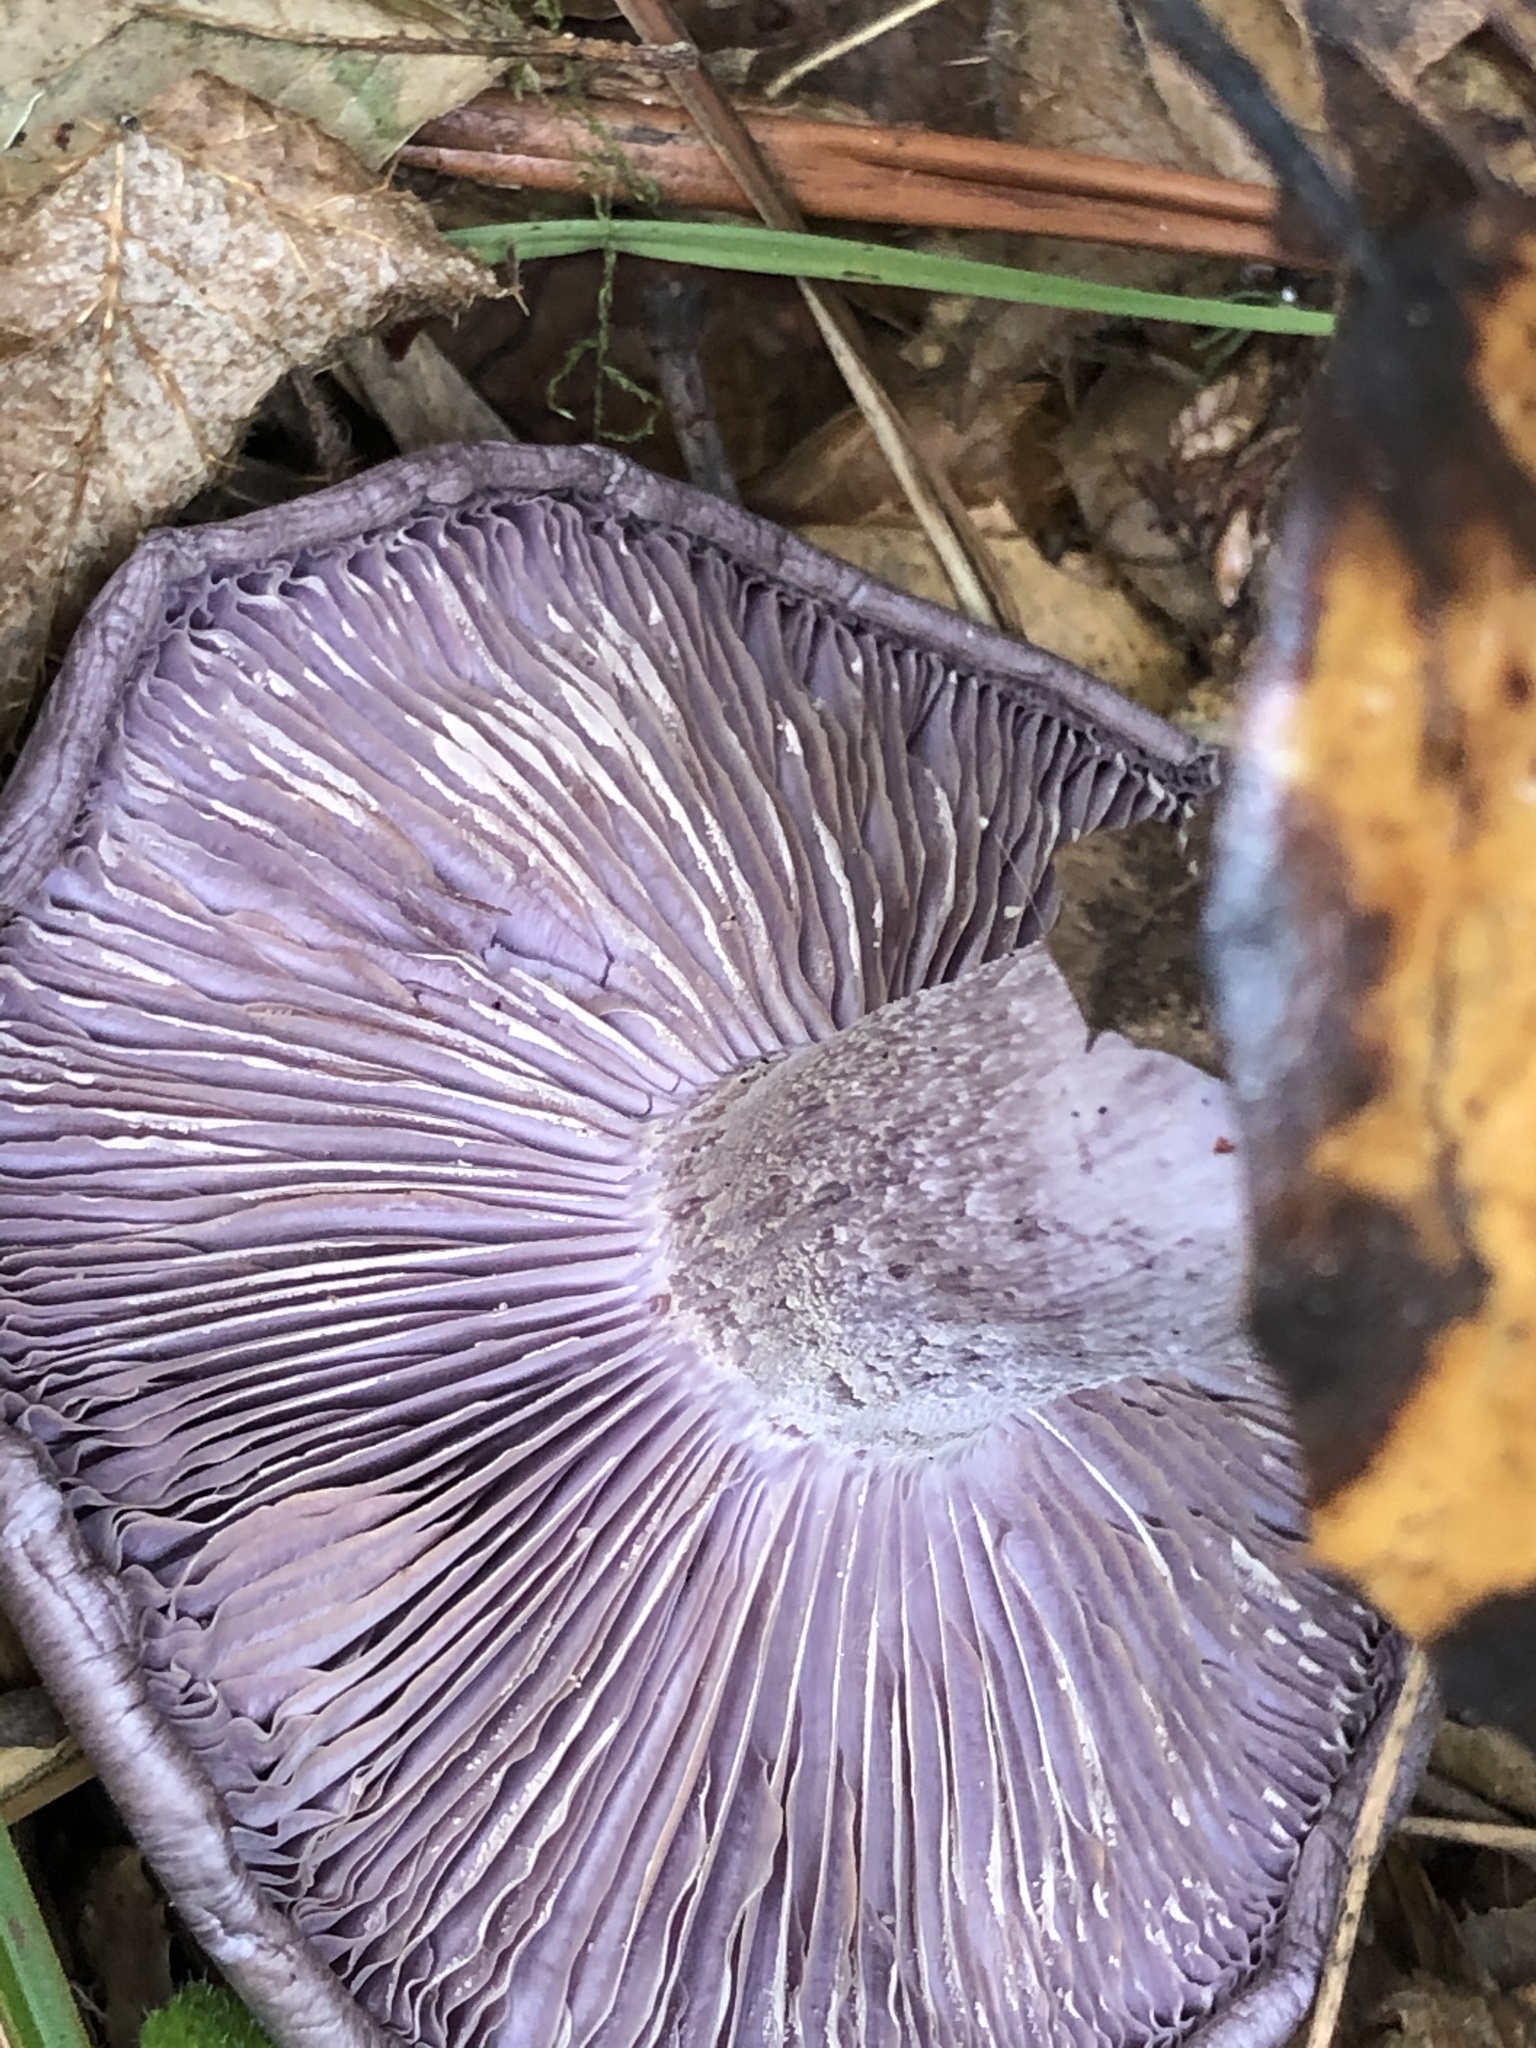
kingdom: Fungi
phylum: Basidiomycota
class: Agaricomycetes
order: Agaricales
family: Tricholomataceae
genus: Collybia
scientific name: Collybia
